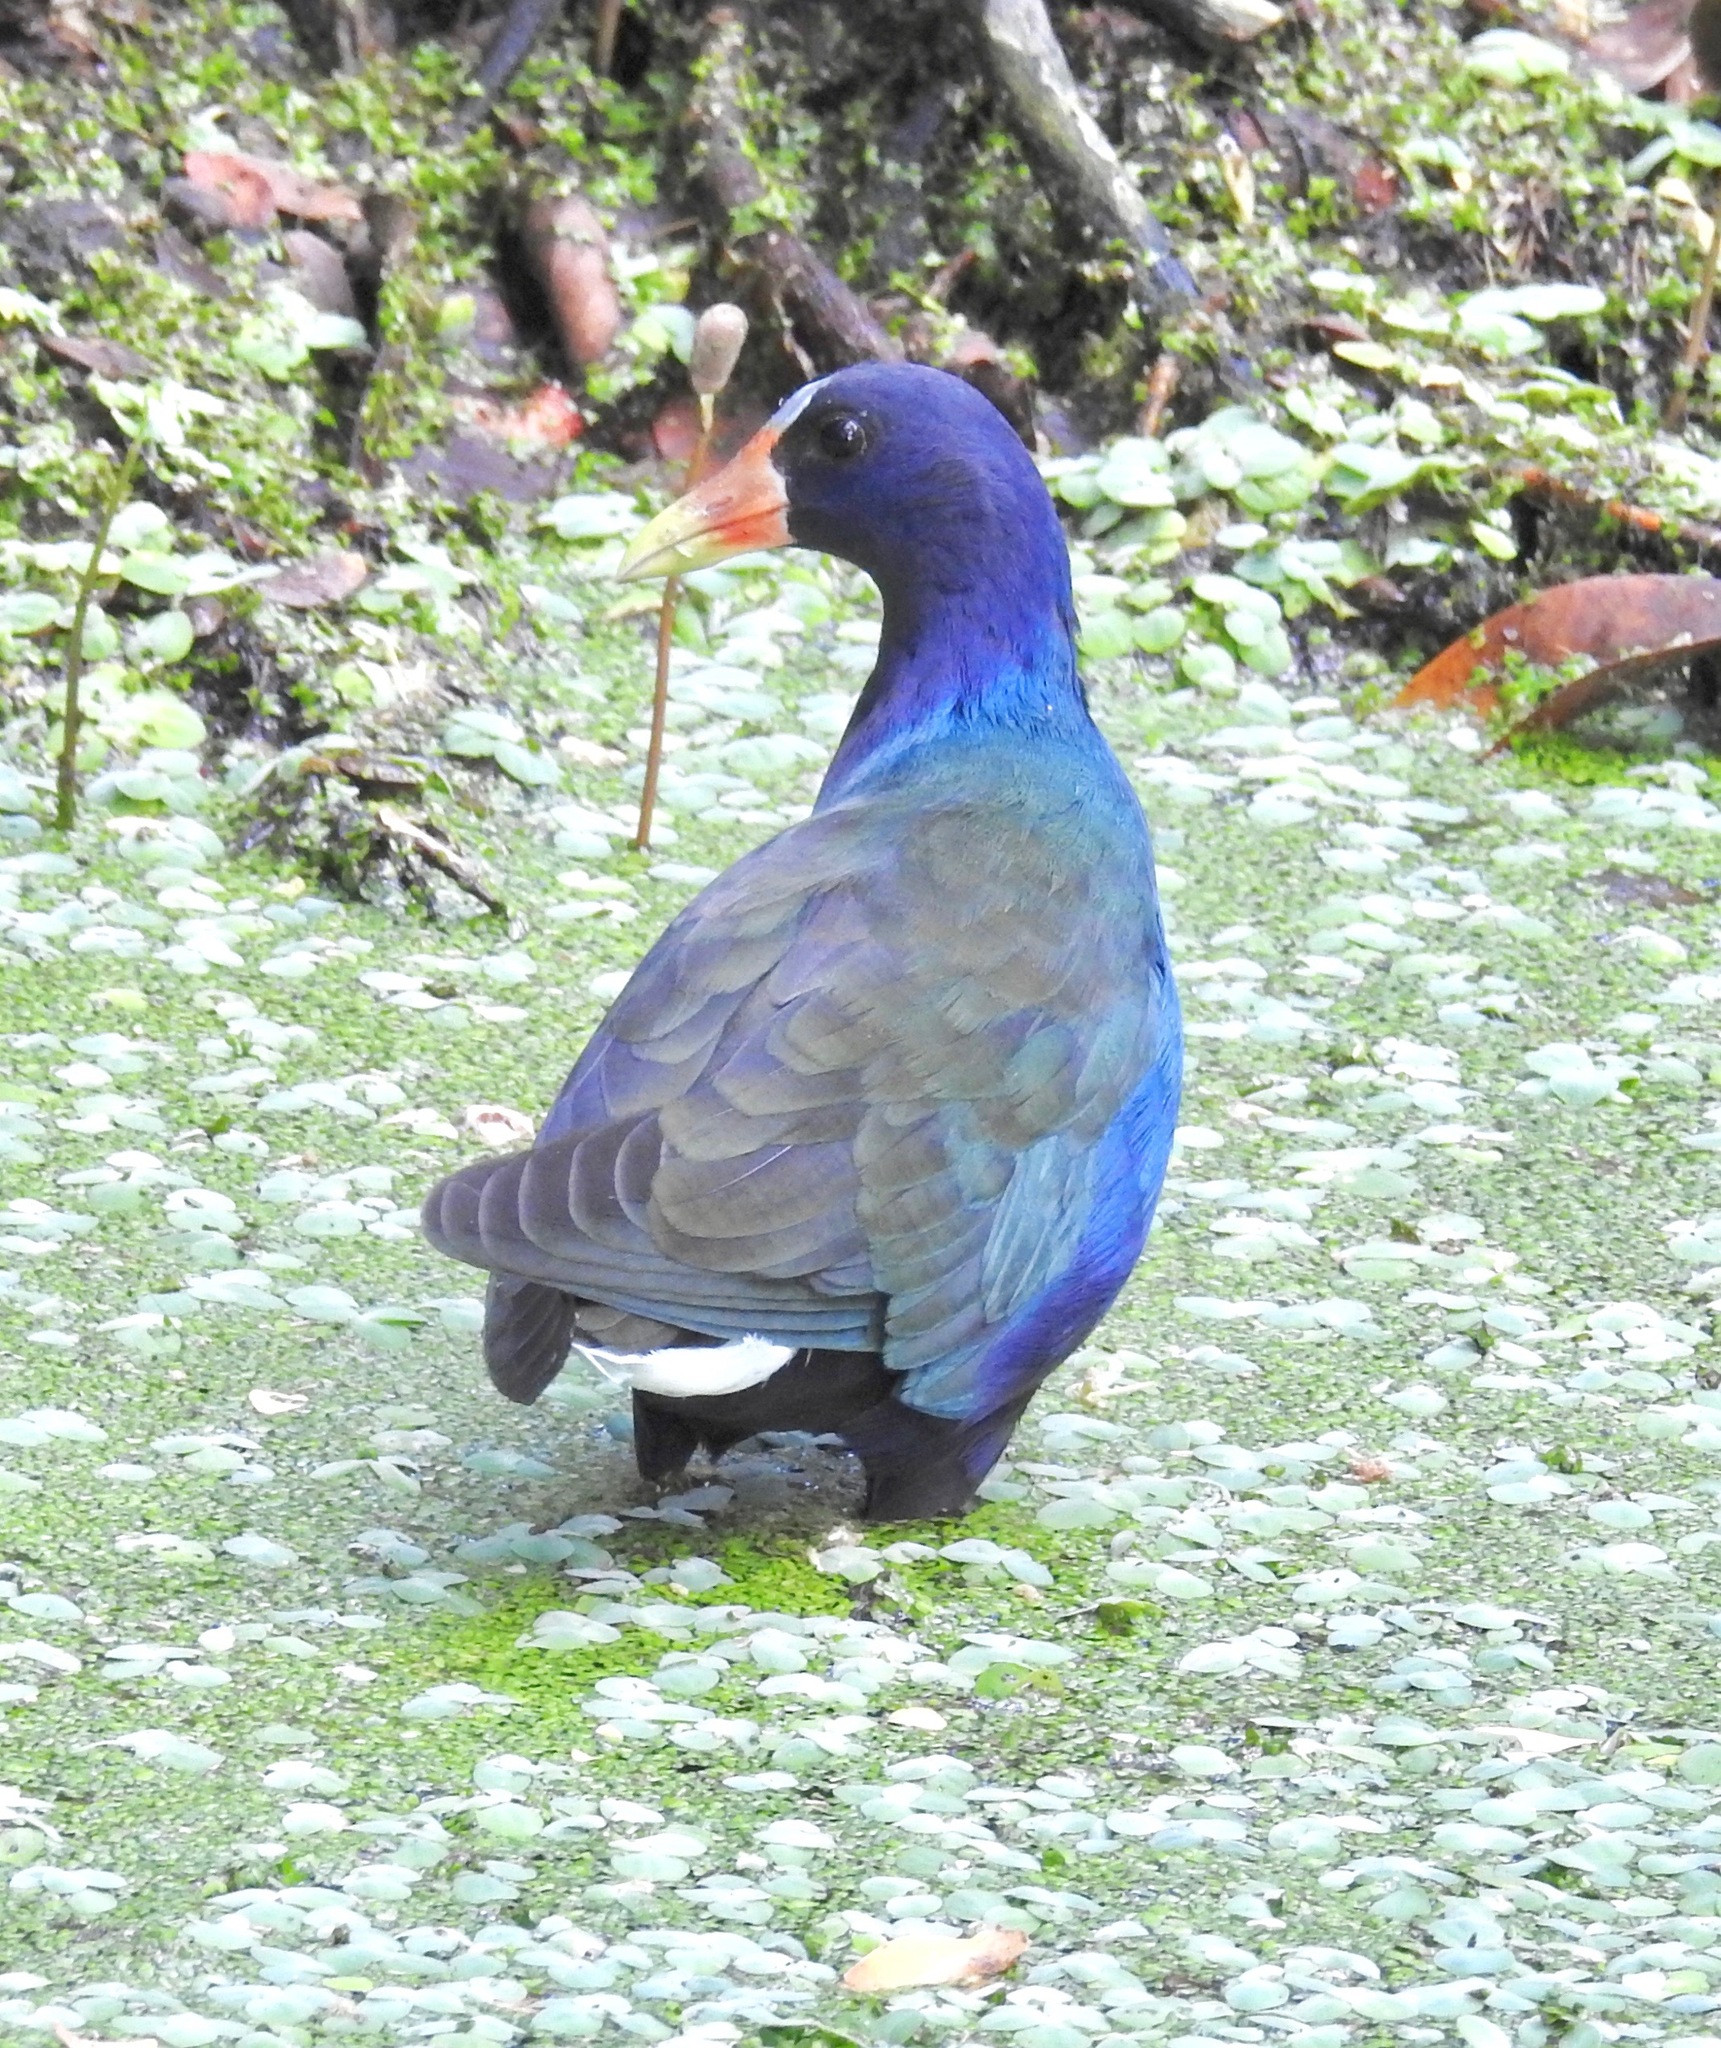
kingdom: Animalia
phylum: Chordata
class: Aves
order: Gruiformes
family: Rallidae
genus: Porphyrio
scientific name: Porphyrio martinica
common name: Purple gallinule
